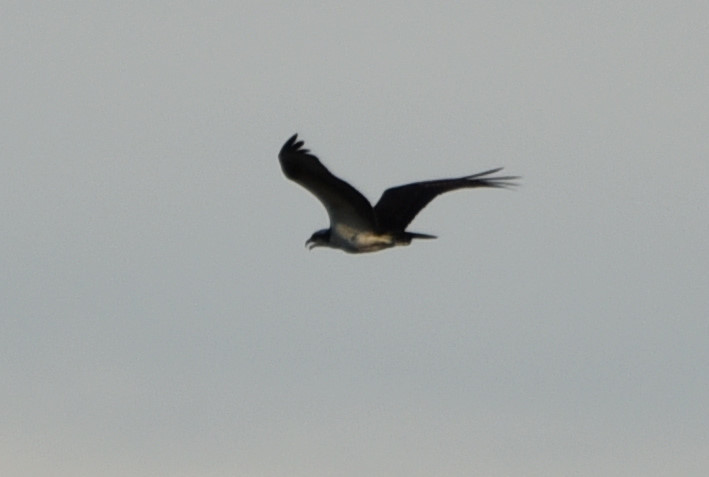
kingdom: Animalia
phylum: Chordata
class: Aves
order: Accipitriformes
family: Pandionidae
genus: Pandion
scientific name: Pandion haliaetus
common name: Osprey
